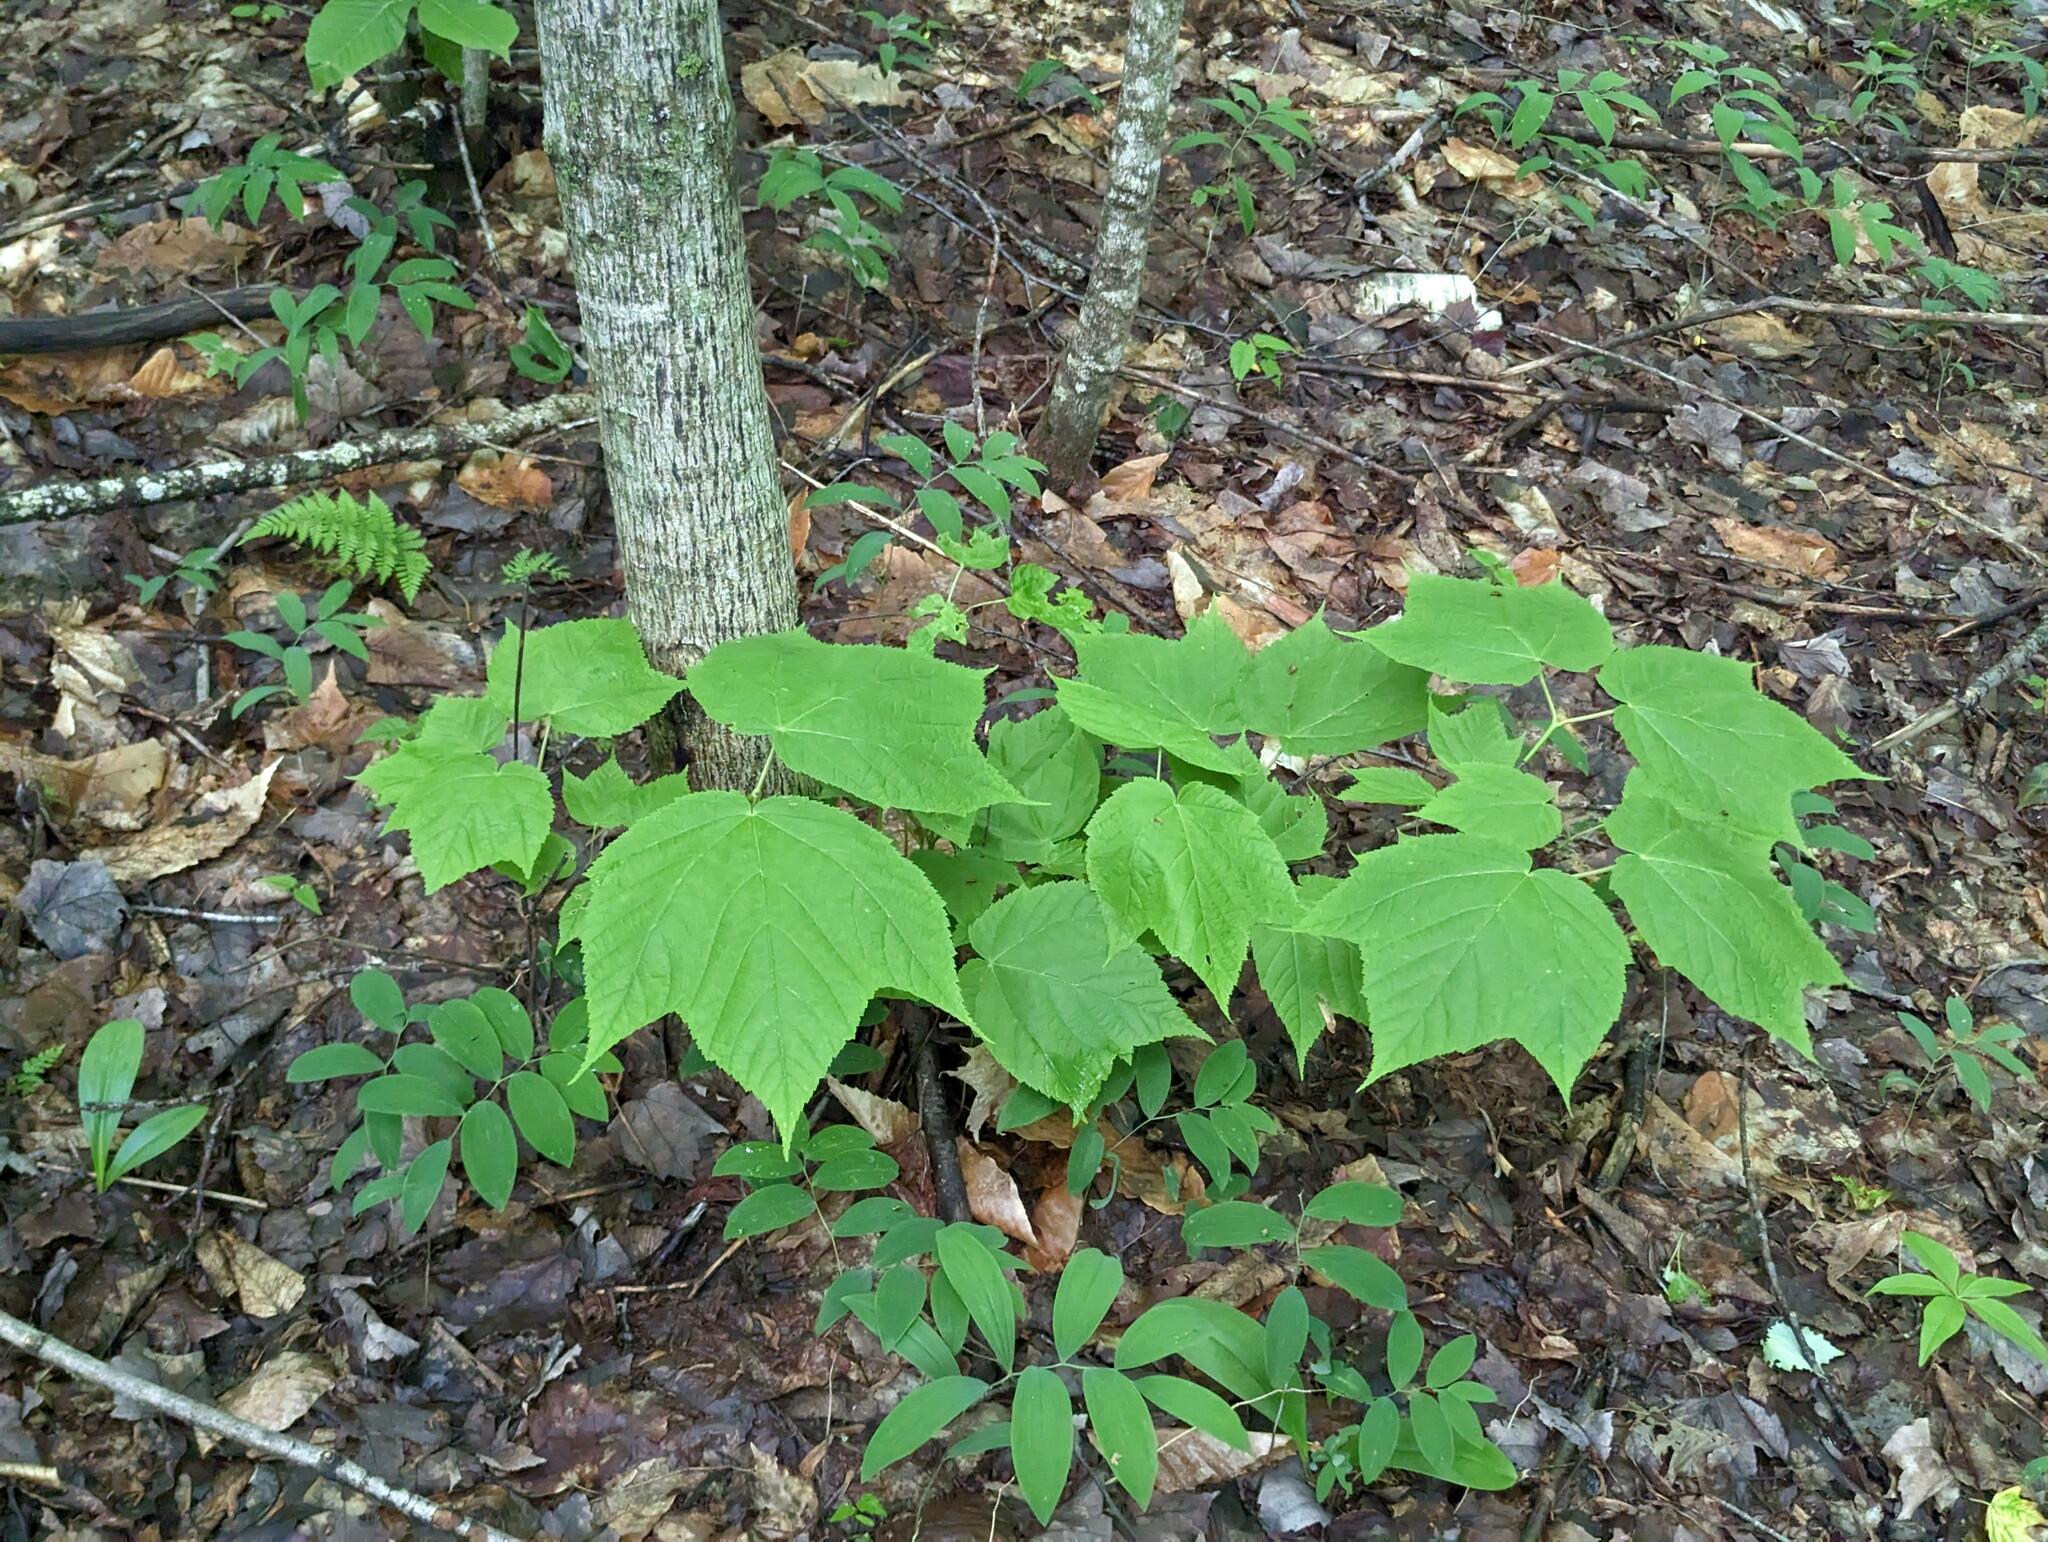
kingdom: Plantae
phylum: Tracheophyta
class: Magnoliopsida
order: Sapindales
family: Sapindaceae
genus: Acer
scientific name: Acer pensylvanicum
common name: Moosewood
